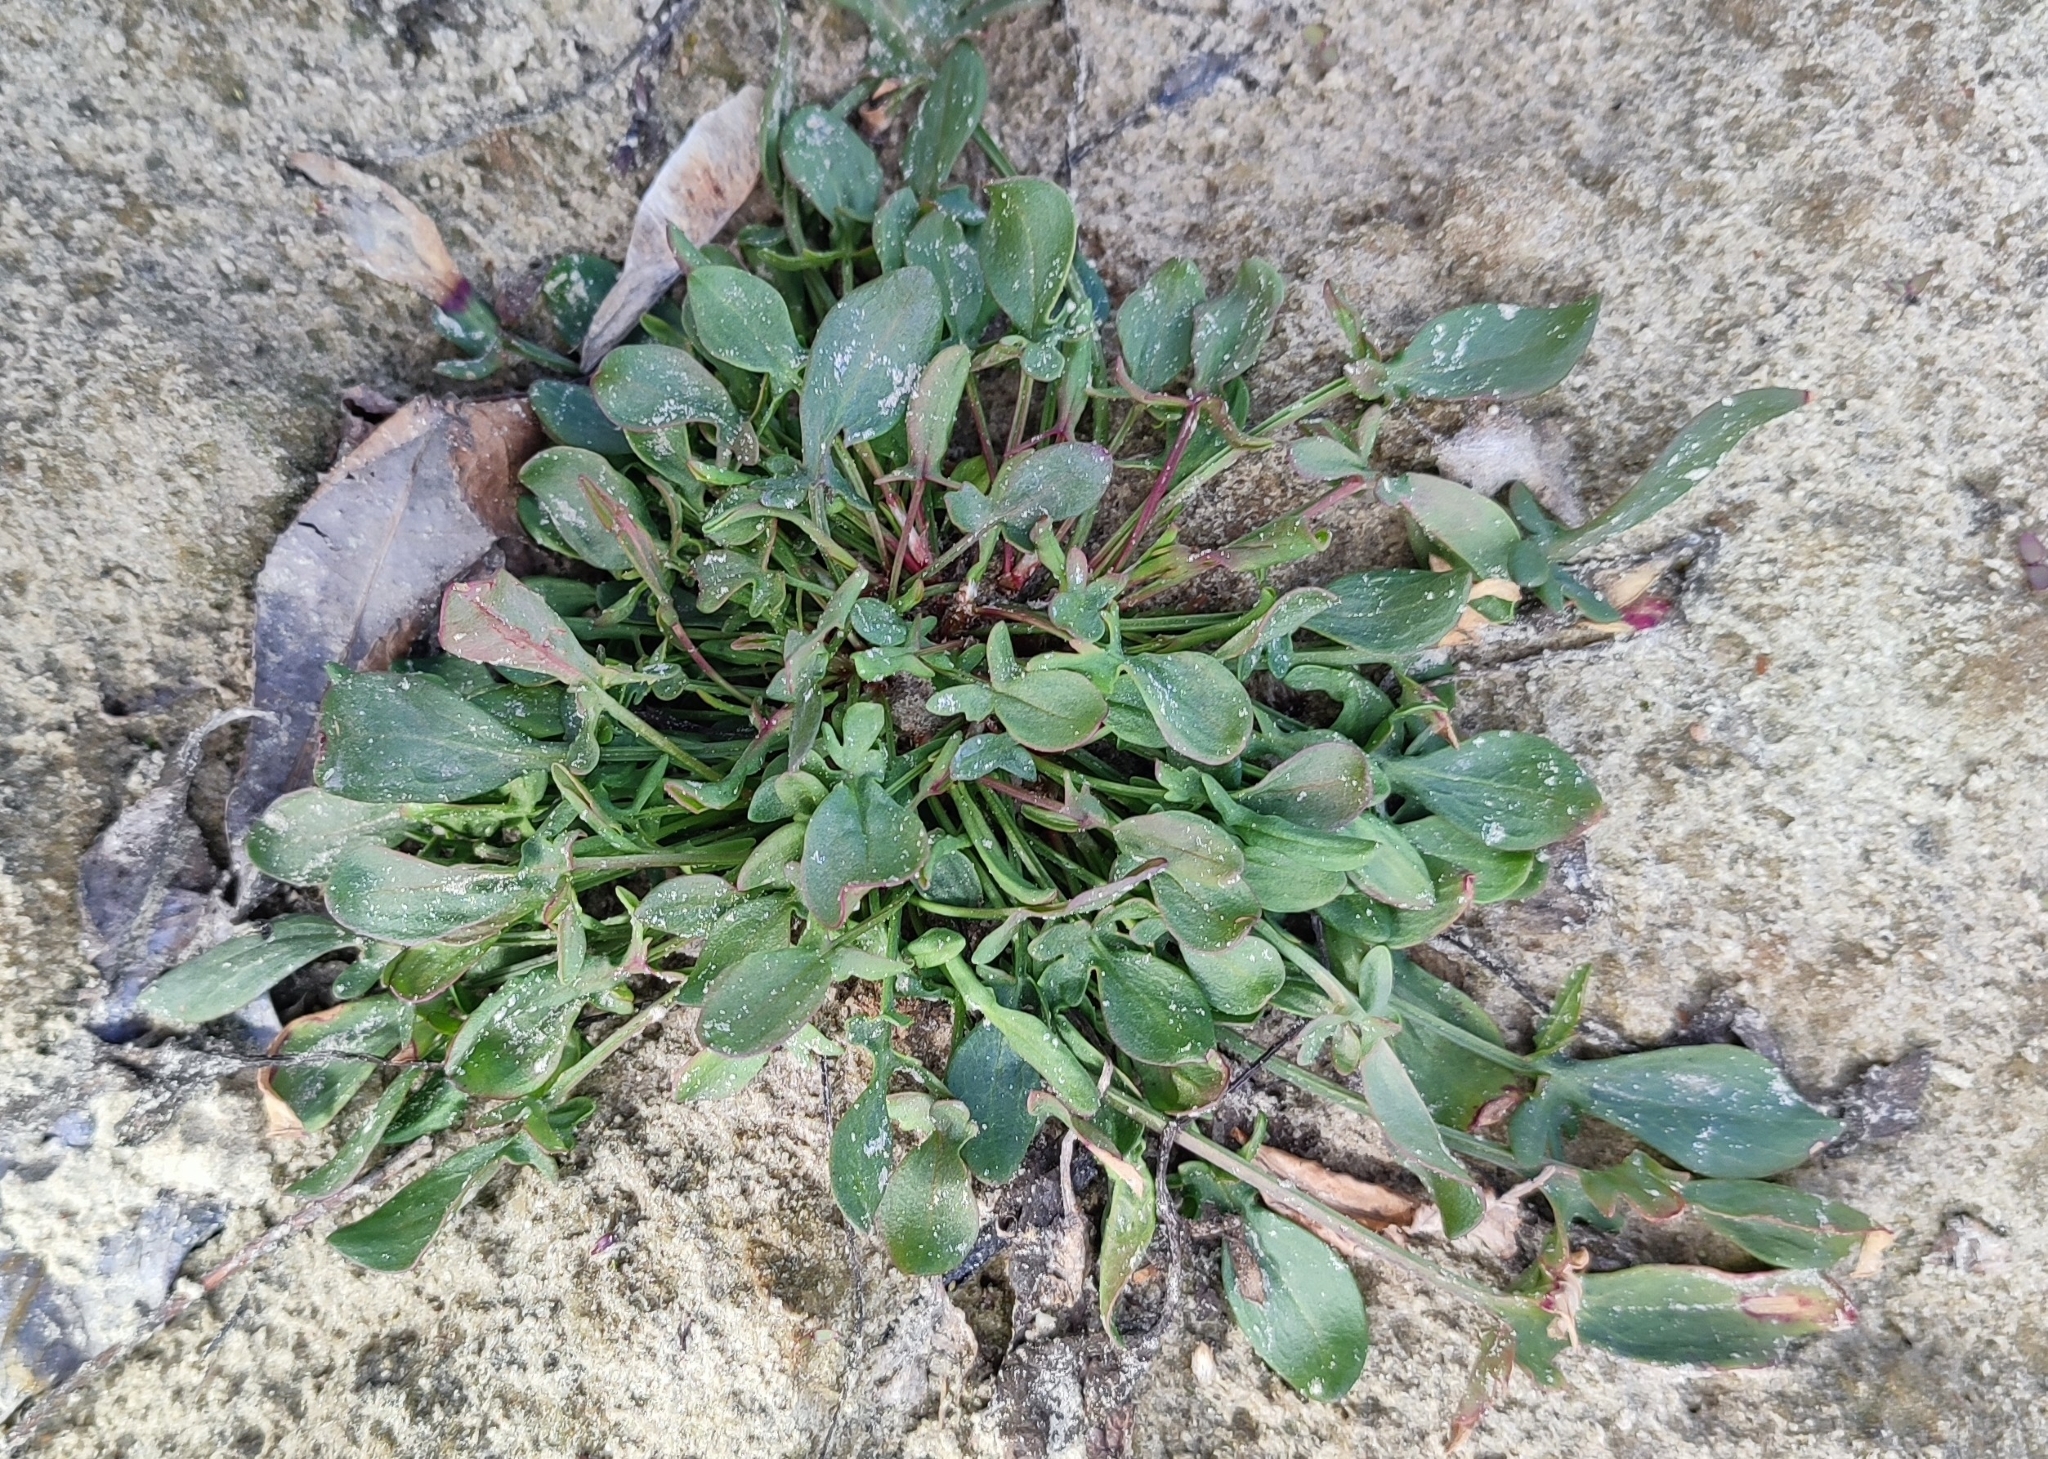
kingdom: Plantae
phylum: Tracheophyta
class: Magnoliopsida
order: Caryophyllales
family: Polygonaceae
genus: Rumex
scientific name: Rumex acetosella
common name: Common sheep sorrel
